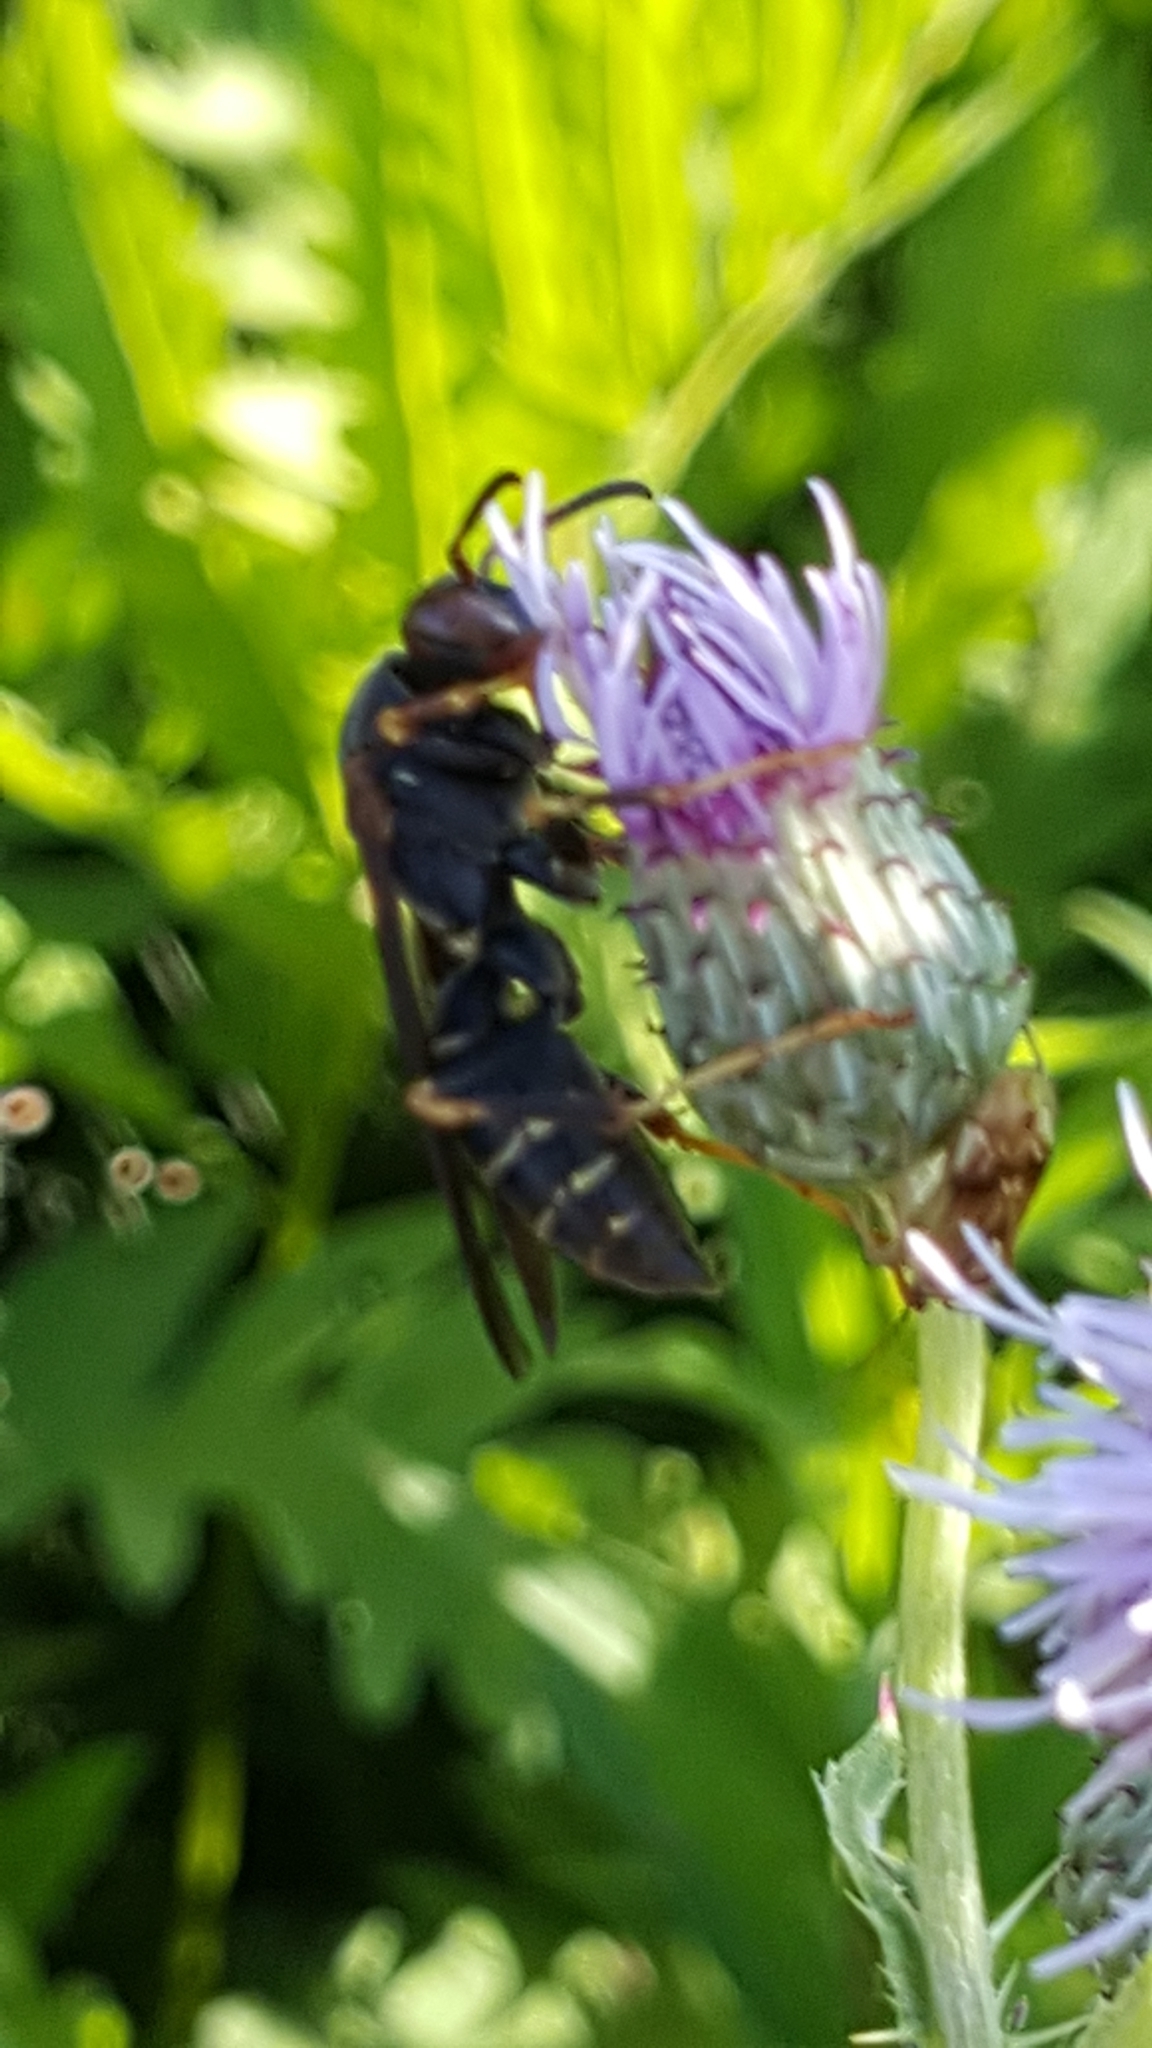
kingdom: Animalia
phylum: Arthropoda
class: Insecta
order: Hymenoptera
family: Eumenidae
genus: Polistes
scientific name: Polistes fuscatus
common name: Dark paper wasp
